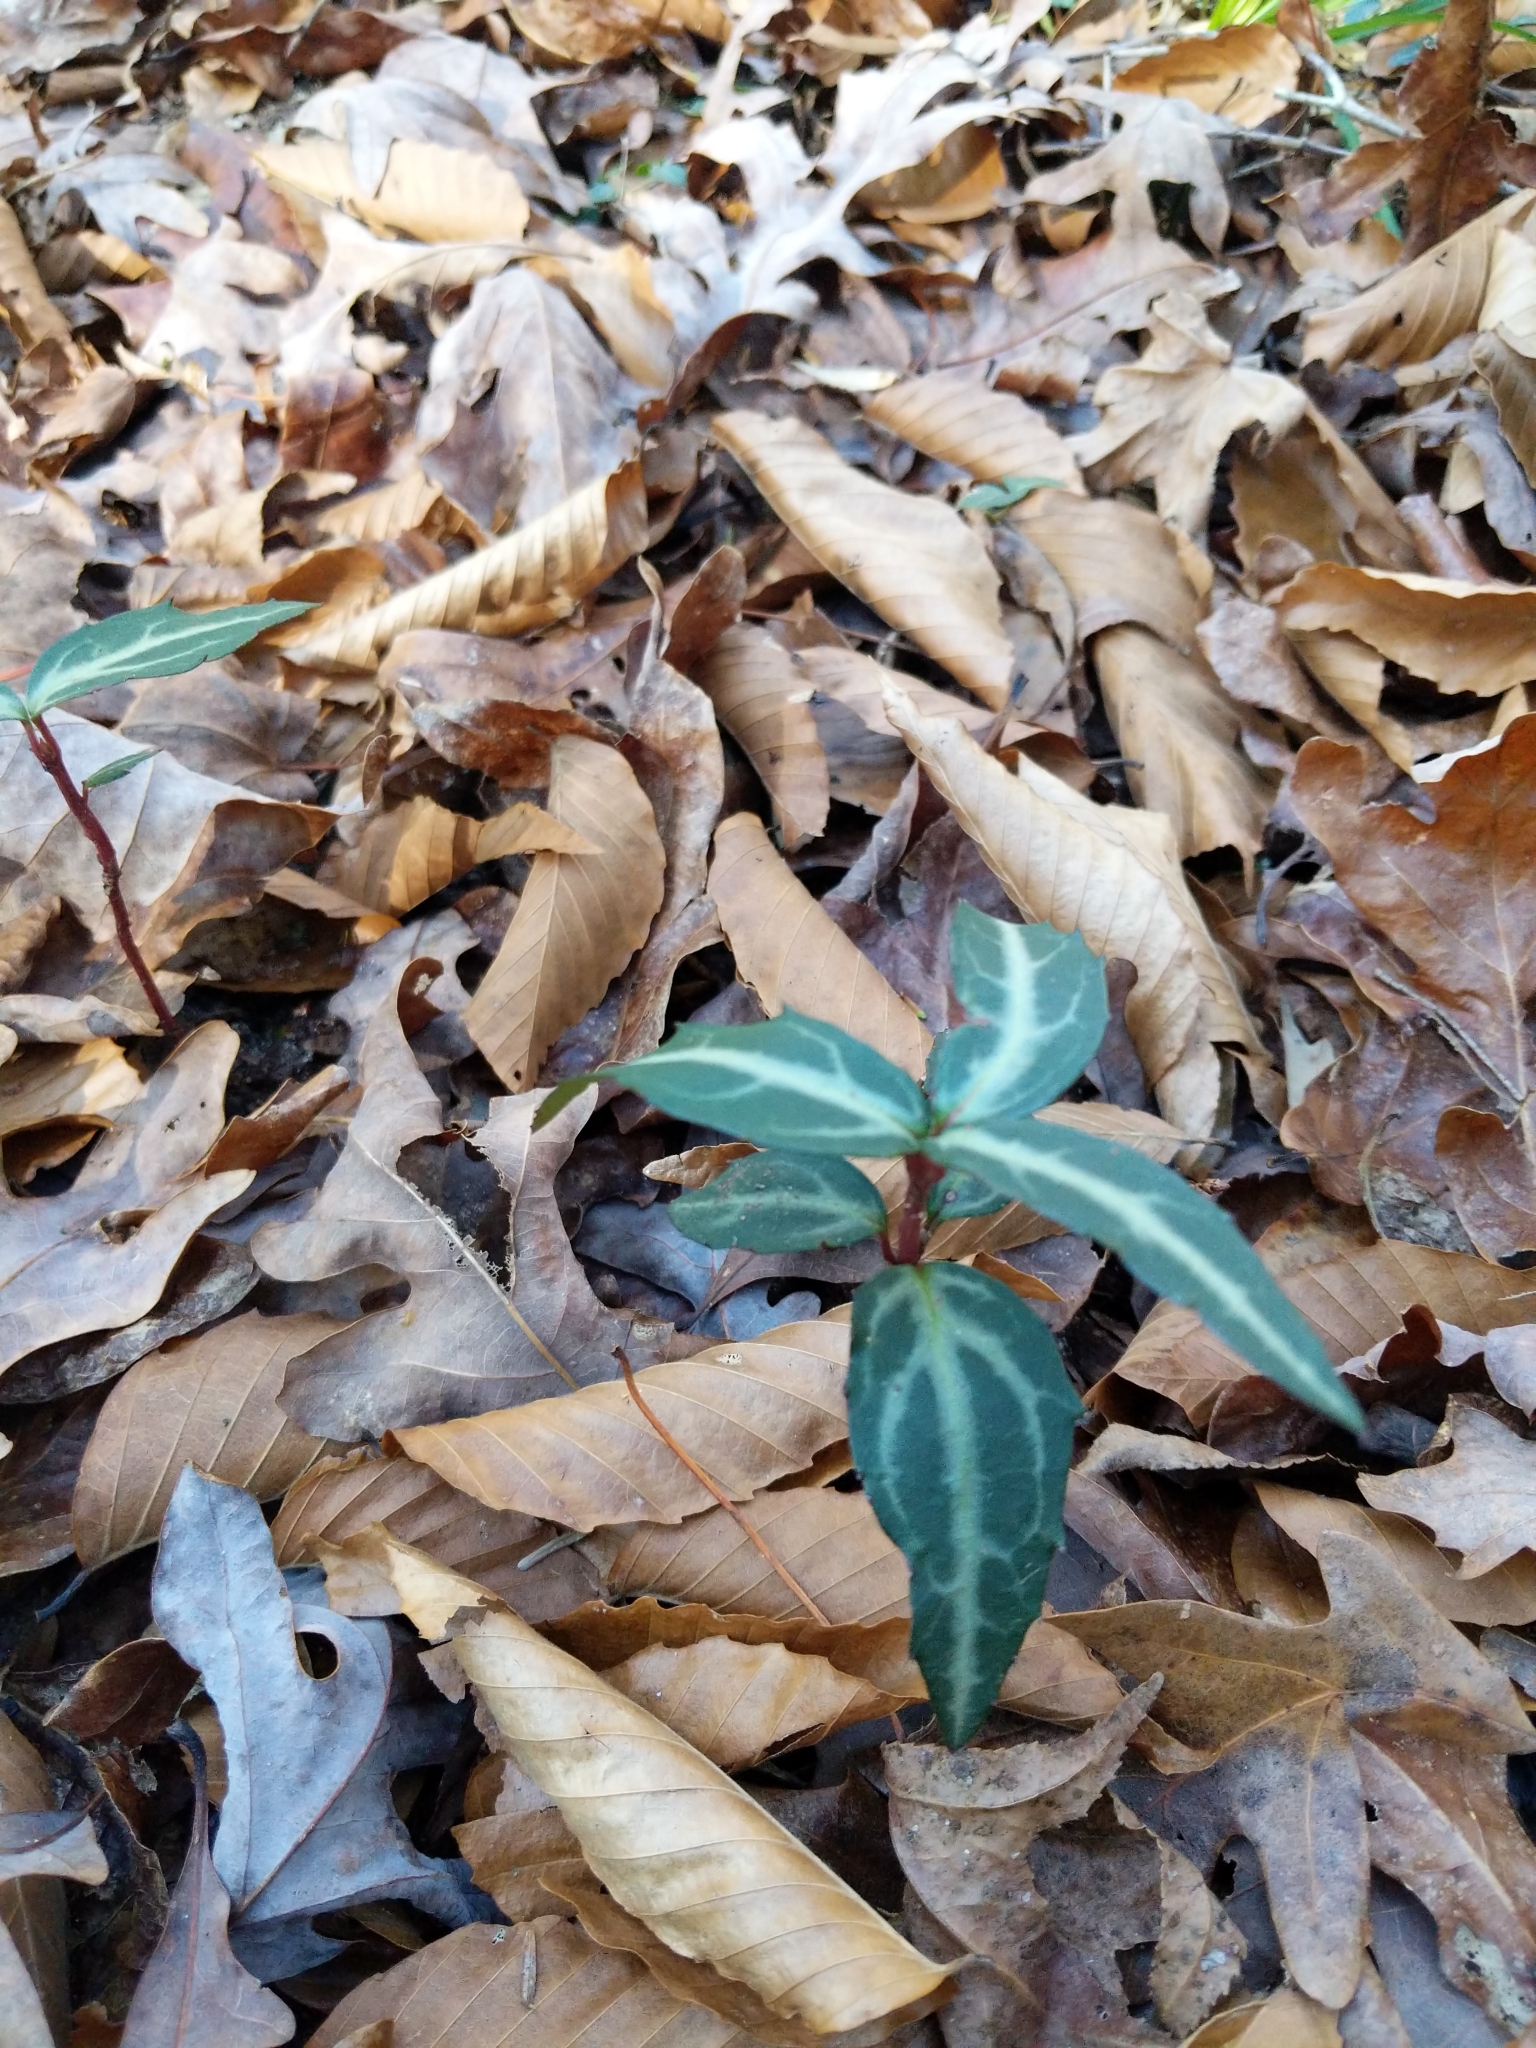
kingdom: Plantae
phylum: Tracheophyta
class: Magnoliopsida
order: Ericales
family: Ericaceae
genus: Chimaphila
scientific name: Chimaphila maculata
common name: Spotted pipsissewa
